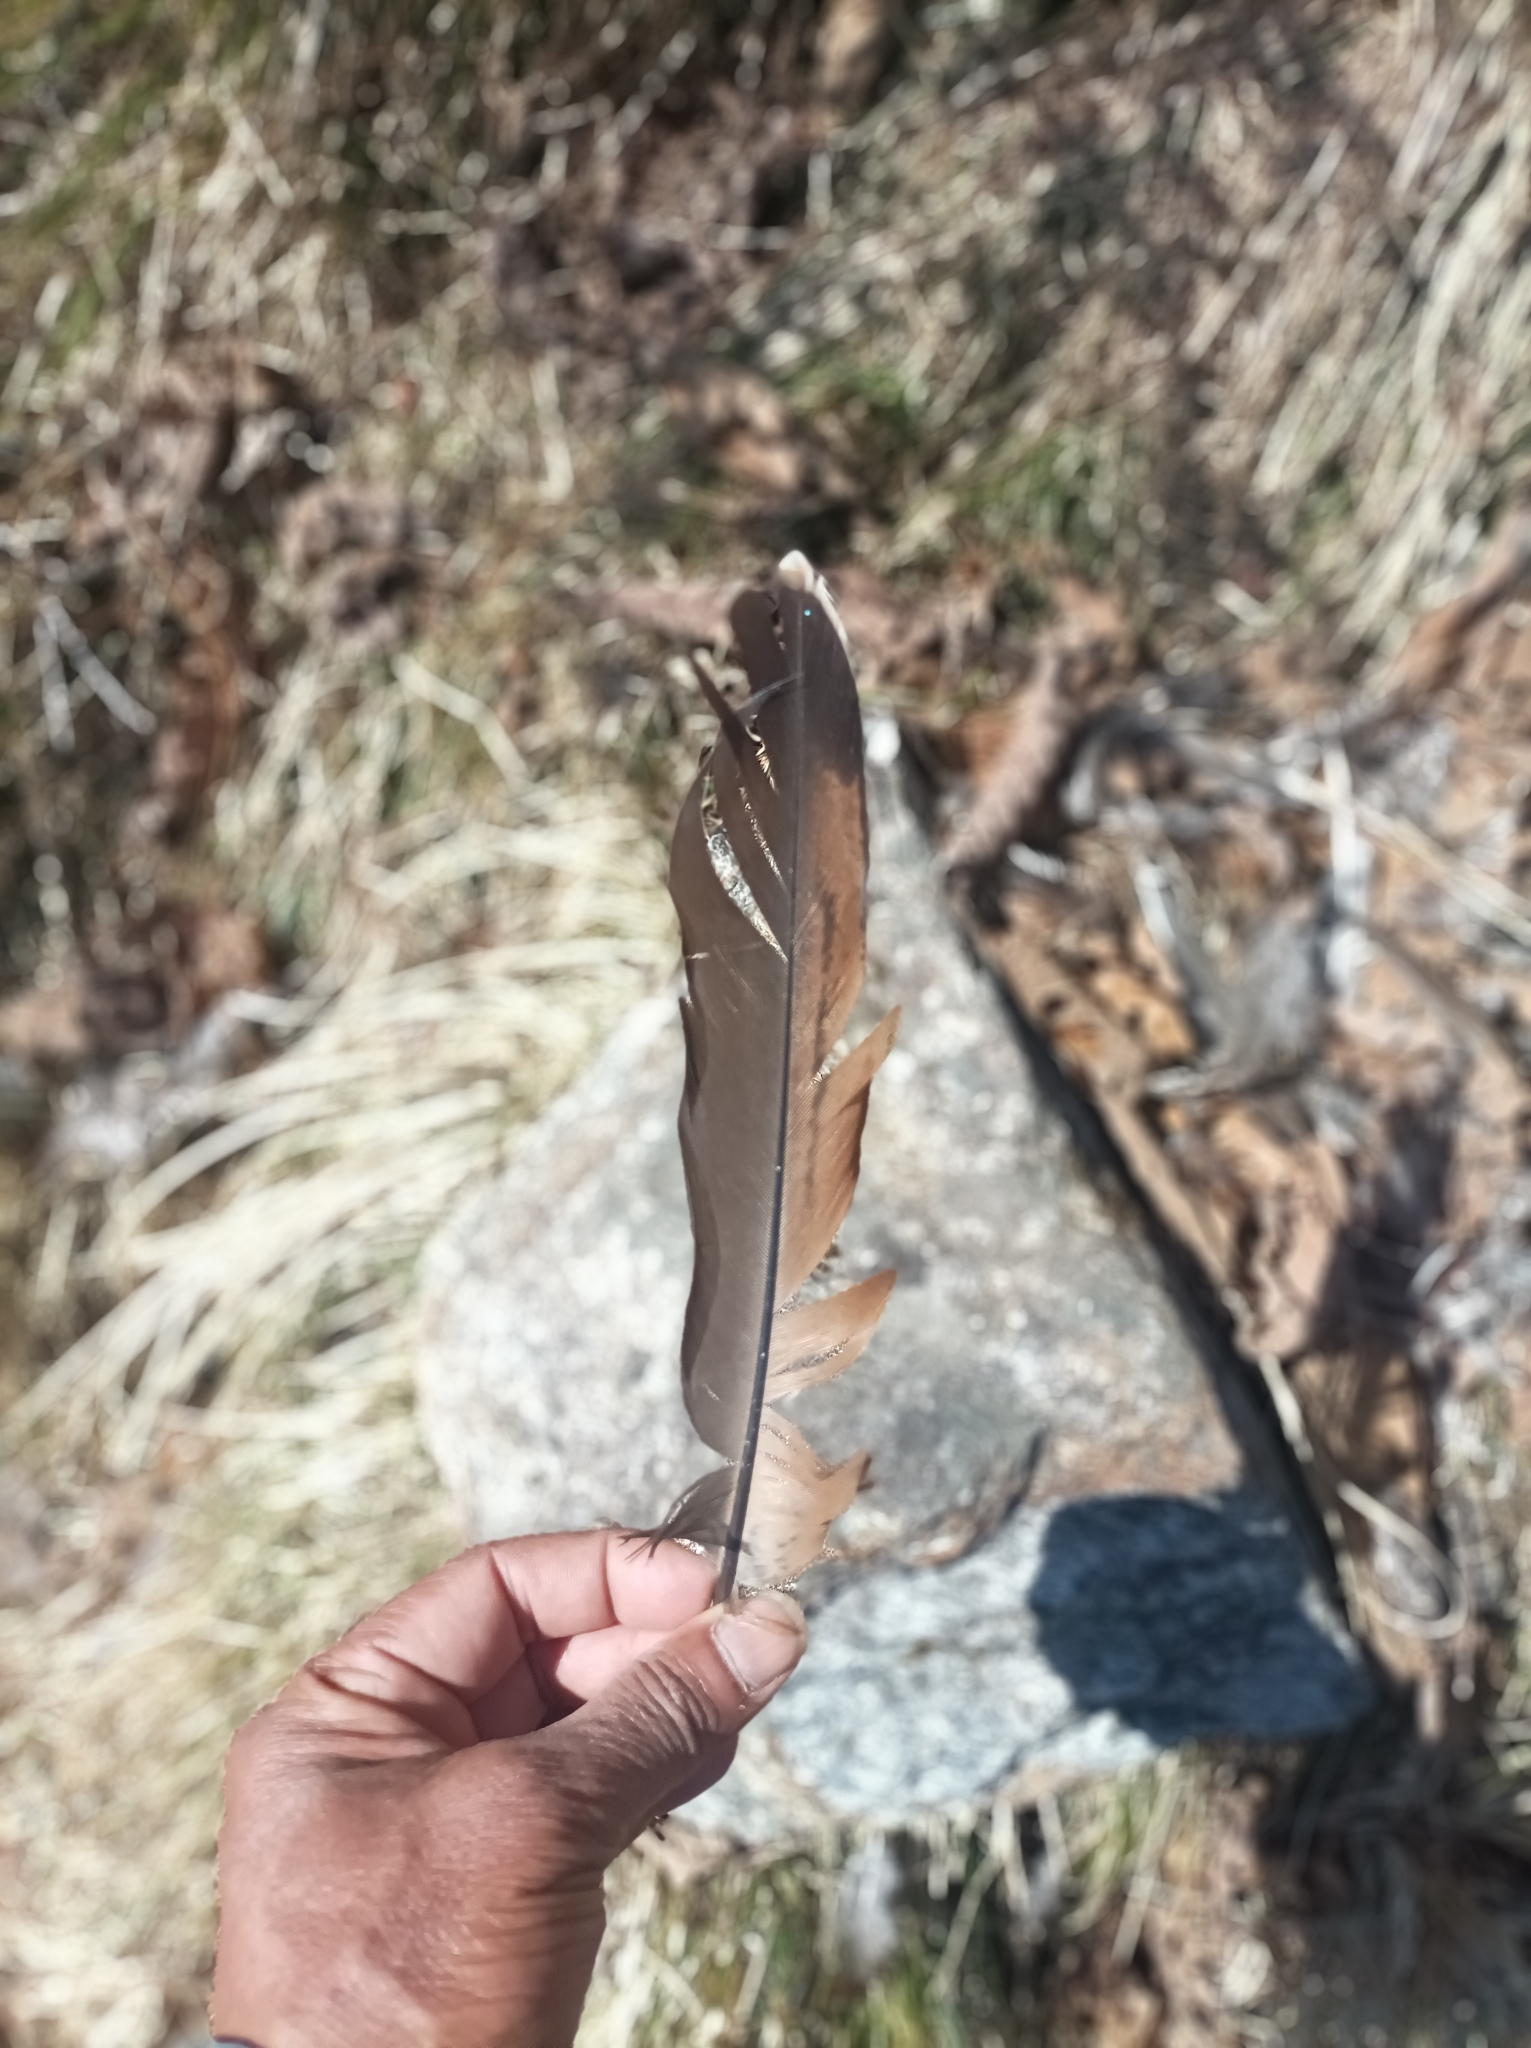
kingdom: Animalia
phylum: Chordata
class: Aves
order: Galliformes
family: Phasianidae
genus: Pucrasia
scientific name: Pucrasia macrolopha
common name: Koklass pheasant
